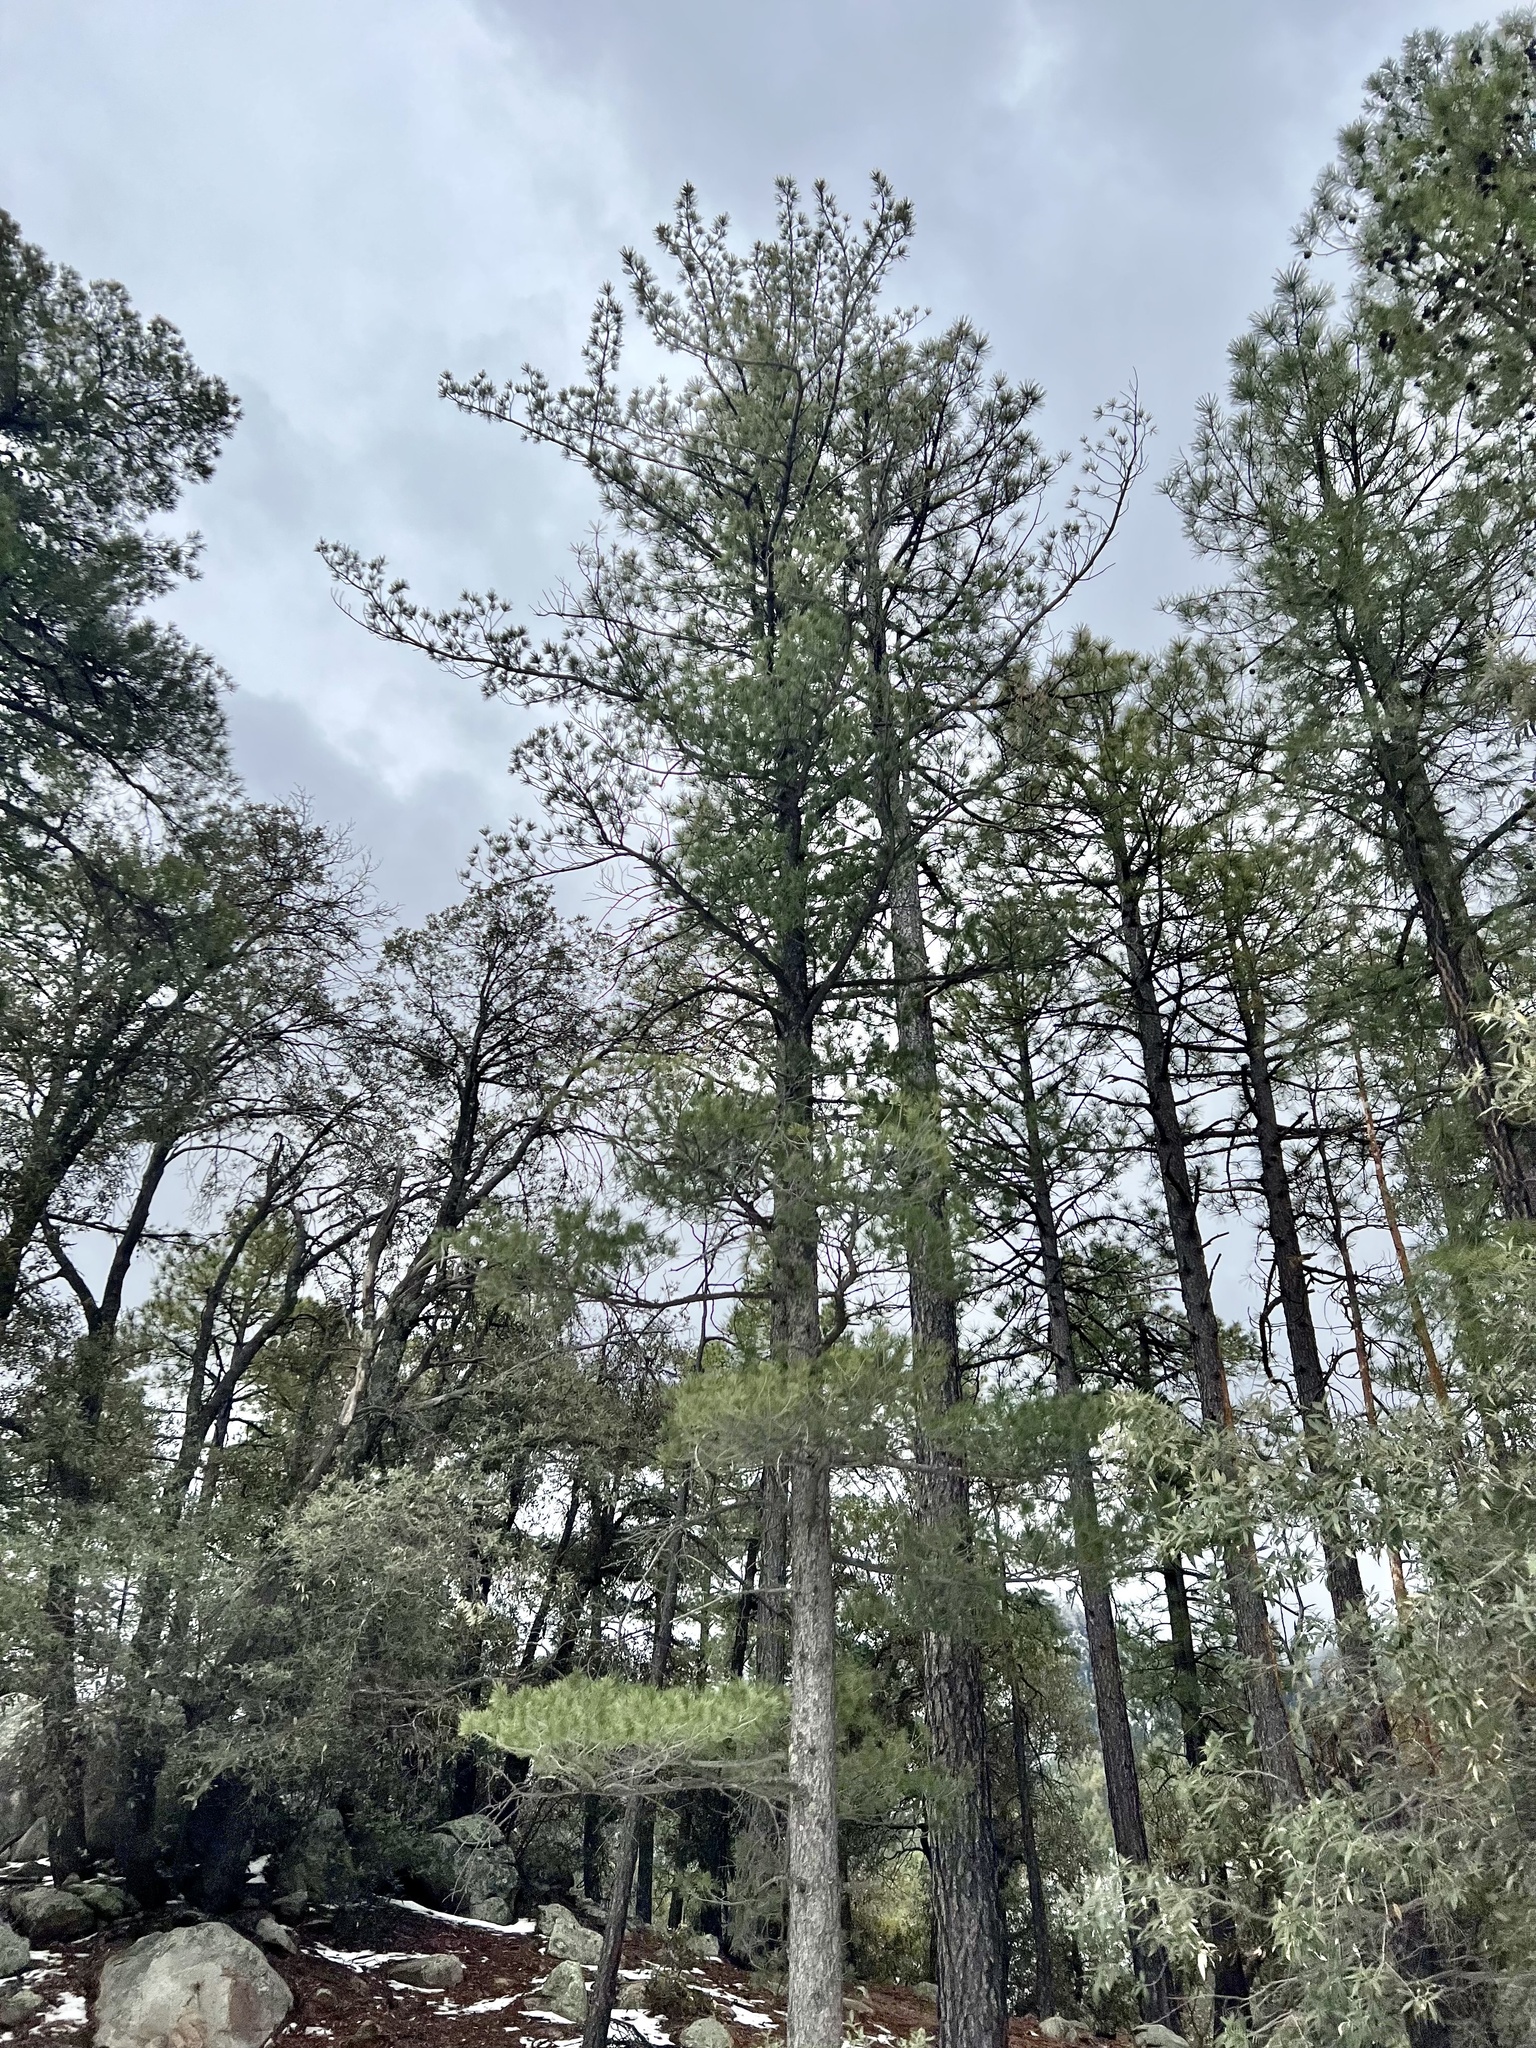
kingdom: Plantae
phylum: Tracheophyta
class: Pinopsida
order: Pinales
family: Pinaceae
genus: Pinus
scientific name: Pinus strobiformis
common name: Southwestern white pine
